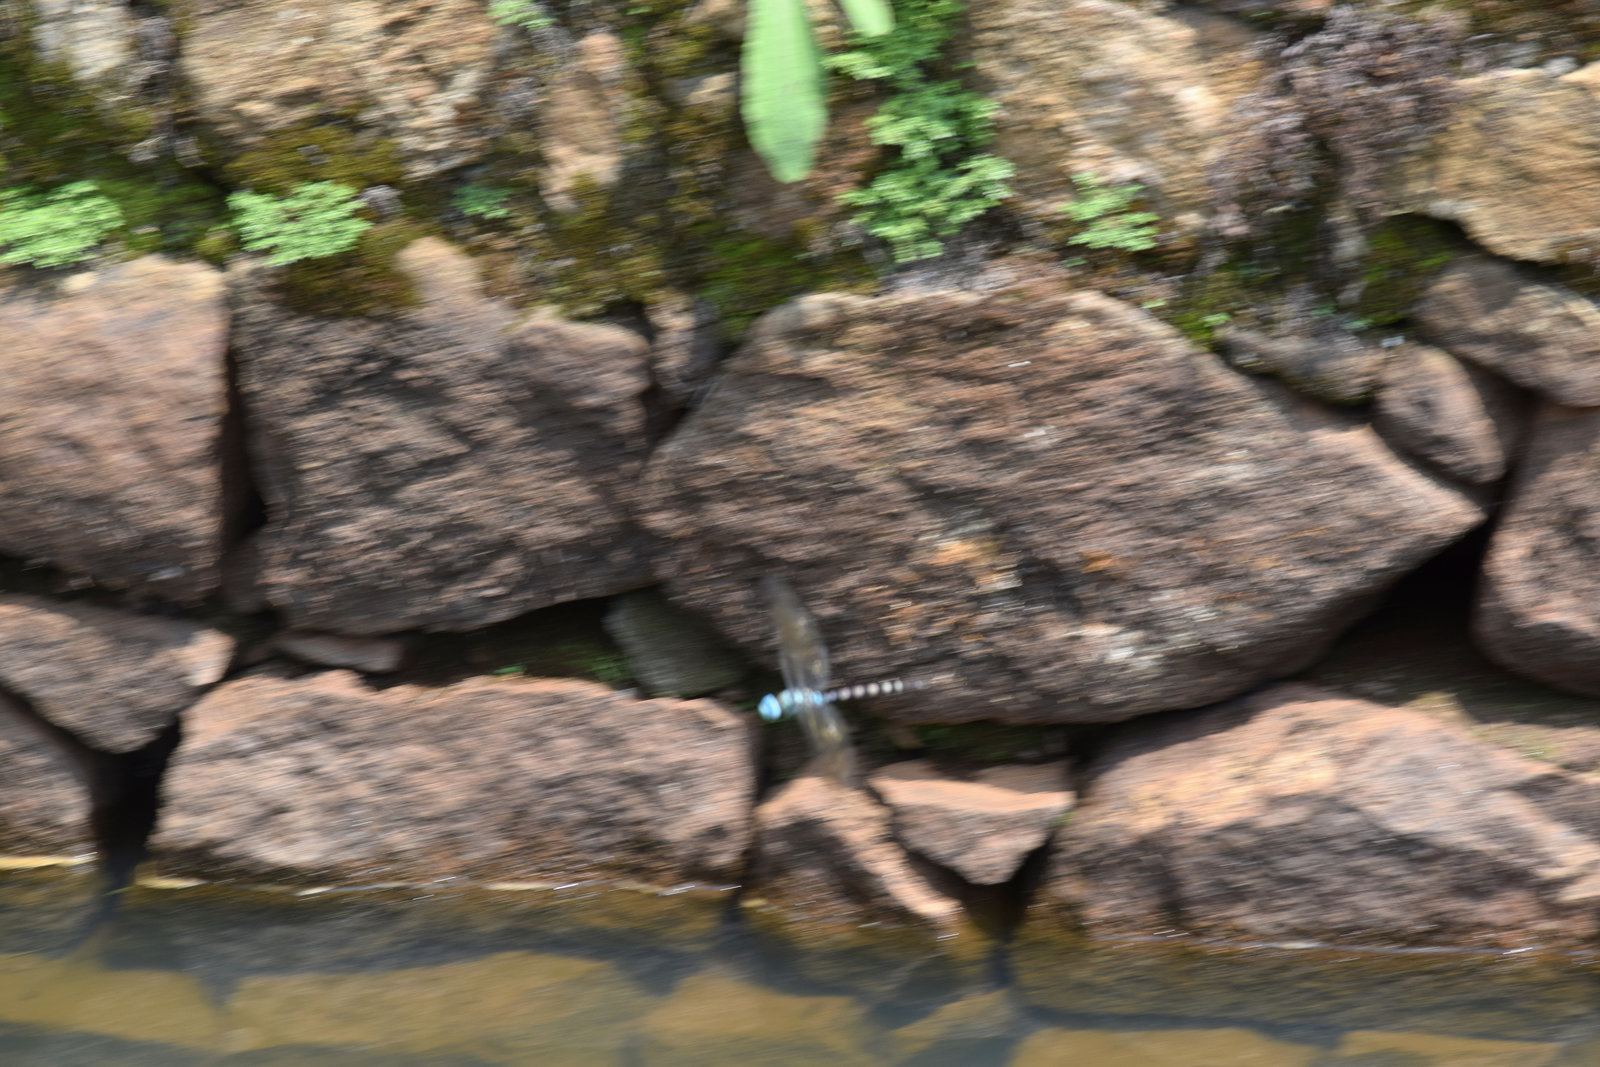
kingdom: Animalia
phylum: Arthropoda
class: Insecta
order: Odonata
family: Aeshnidae
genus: Anax
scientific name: Anax immaculifrons
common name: Magnificent emperor
